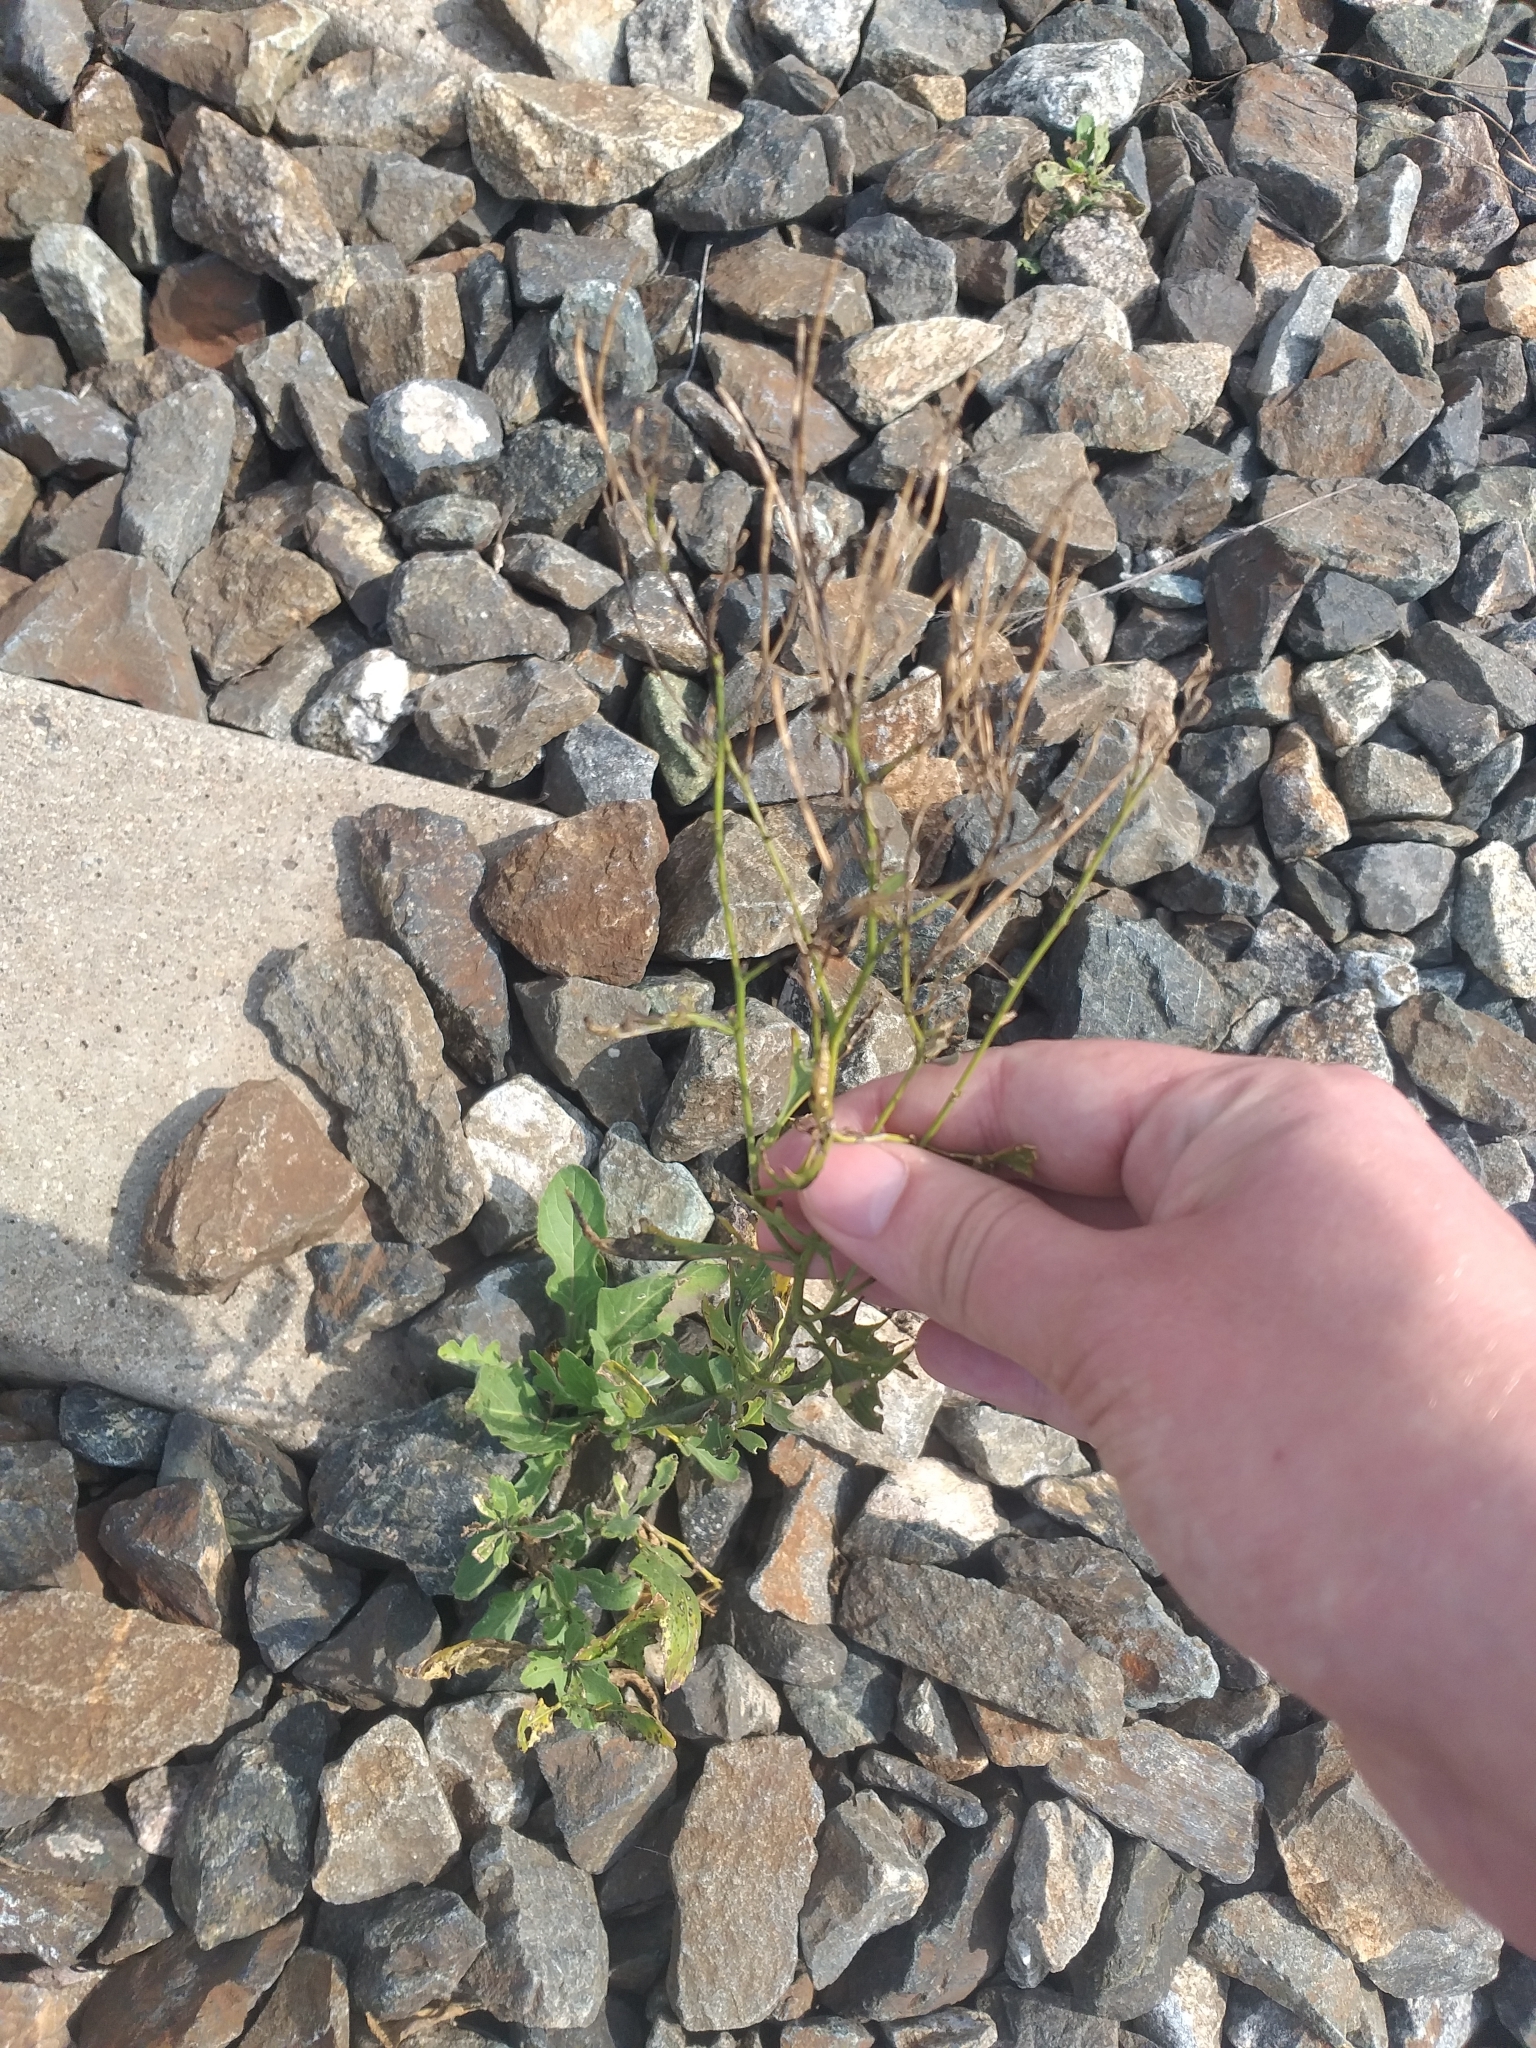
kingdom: Plantae
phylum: Tracheophyta
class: Magnoliopsida
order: Brassicales
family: Brassicaceae
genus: Sisymbrium
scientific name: Sisymbrium volgense
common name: Russian mustard
